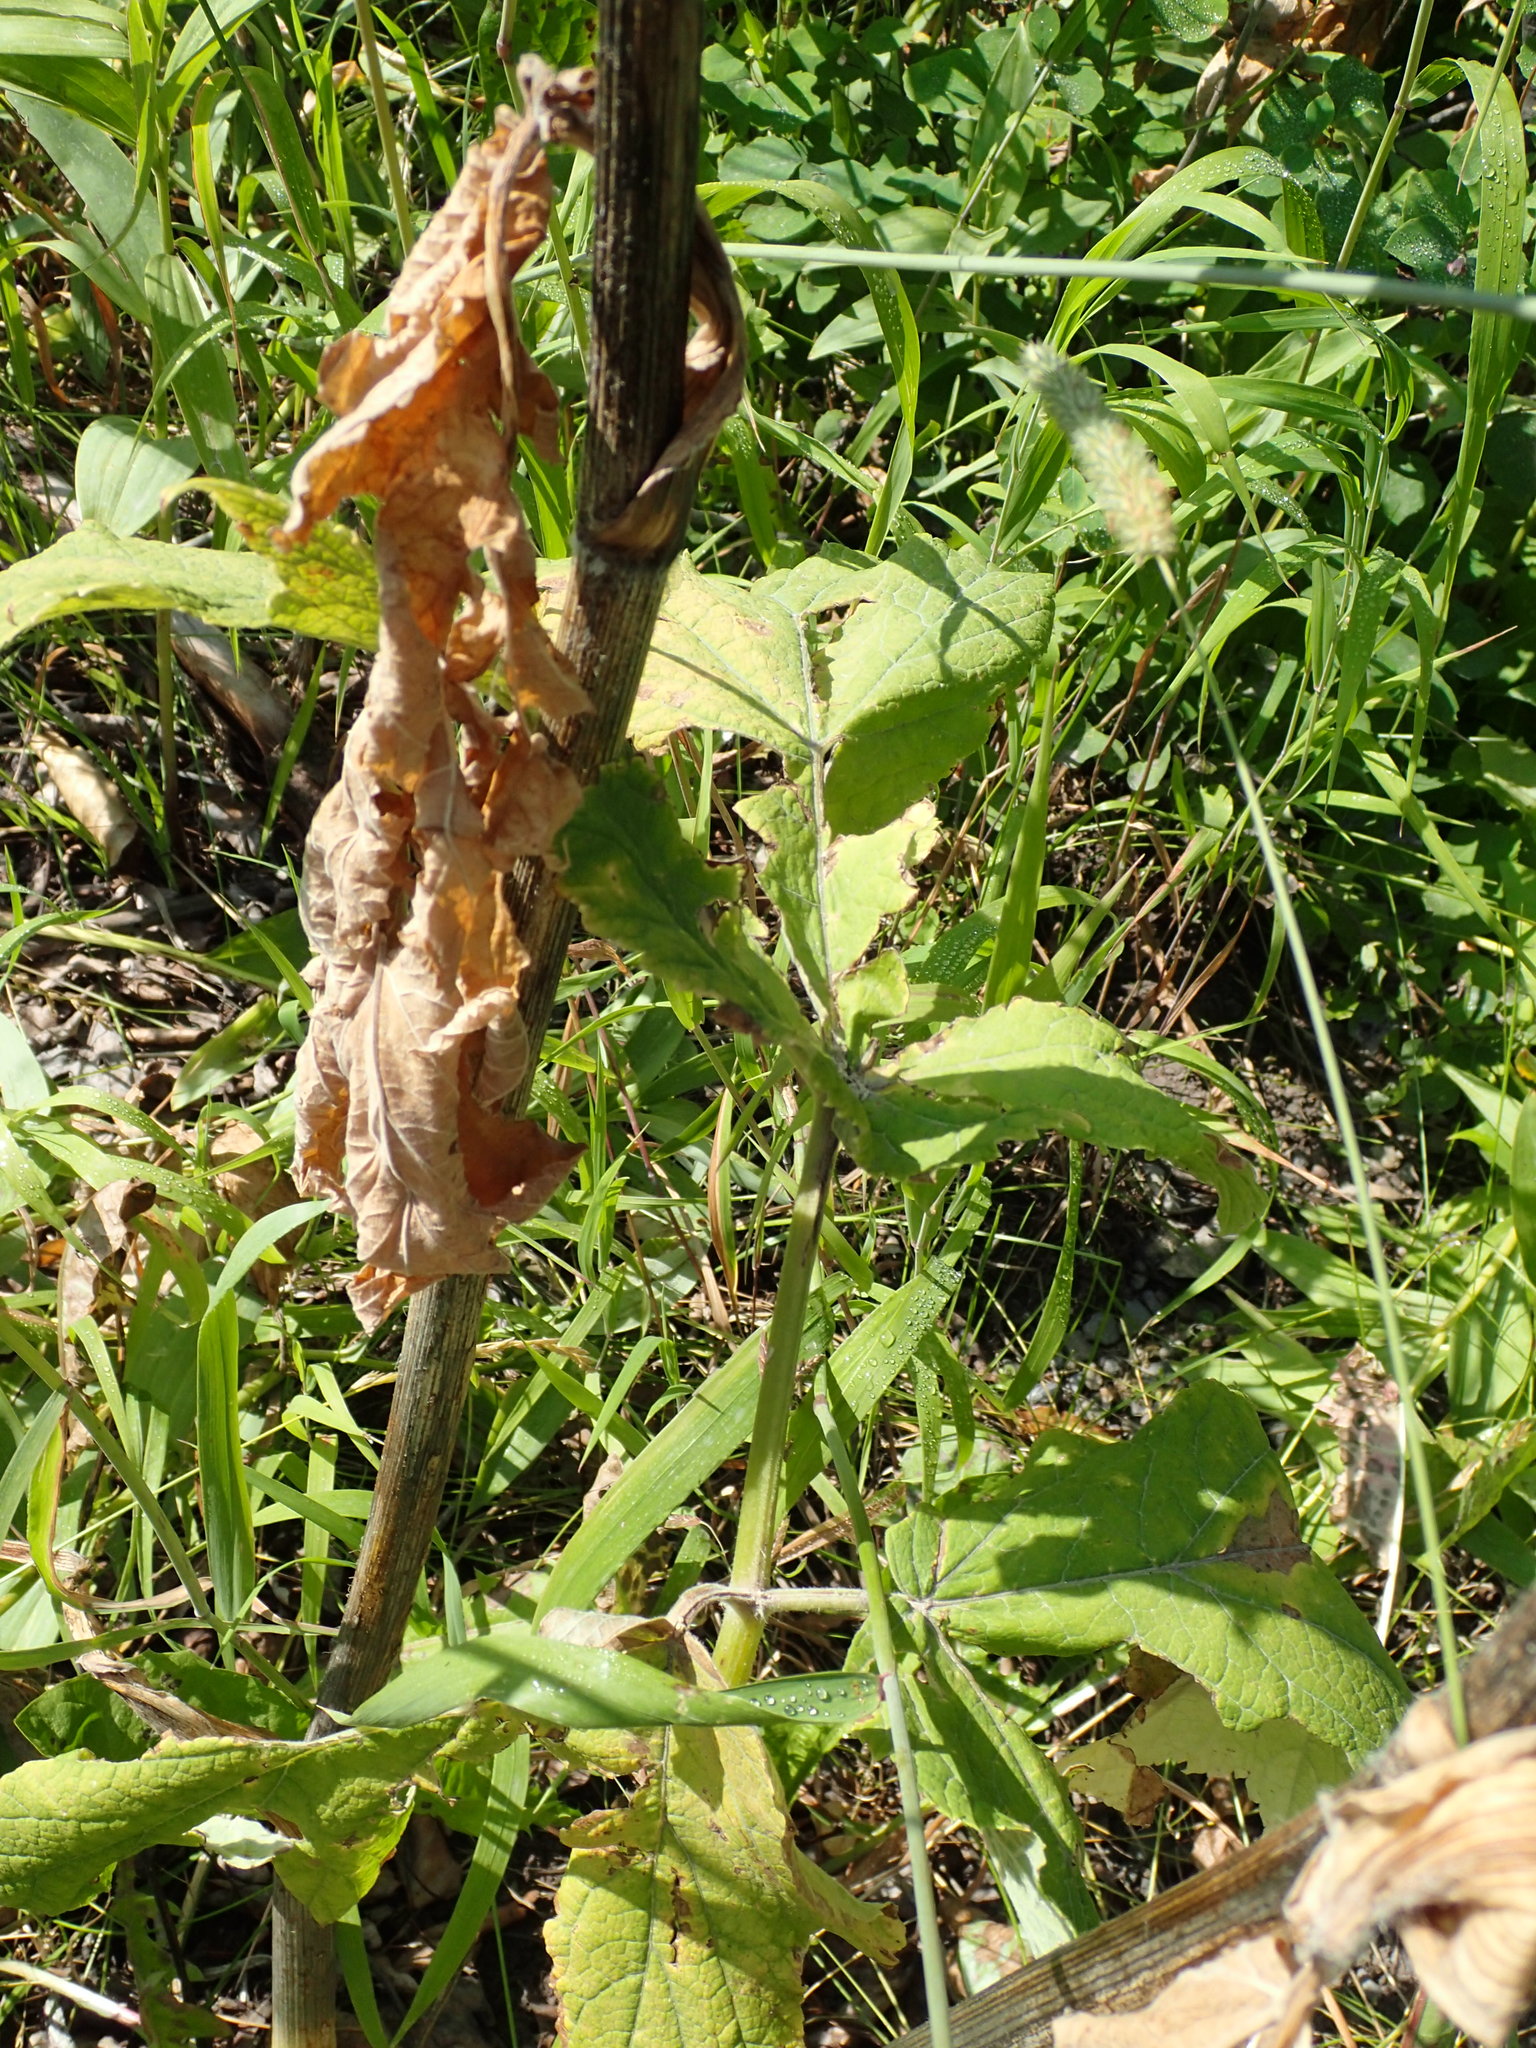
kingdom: Plantae
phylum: Tracheophyta
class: Magnoliopsida
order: Apiales
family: Apiaceae
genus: Heracleum
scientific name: Heracleum maximum
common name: American cow parsnip
